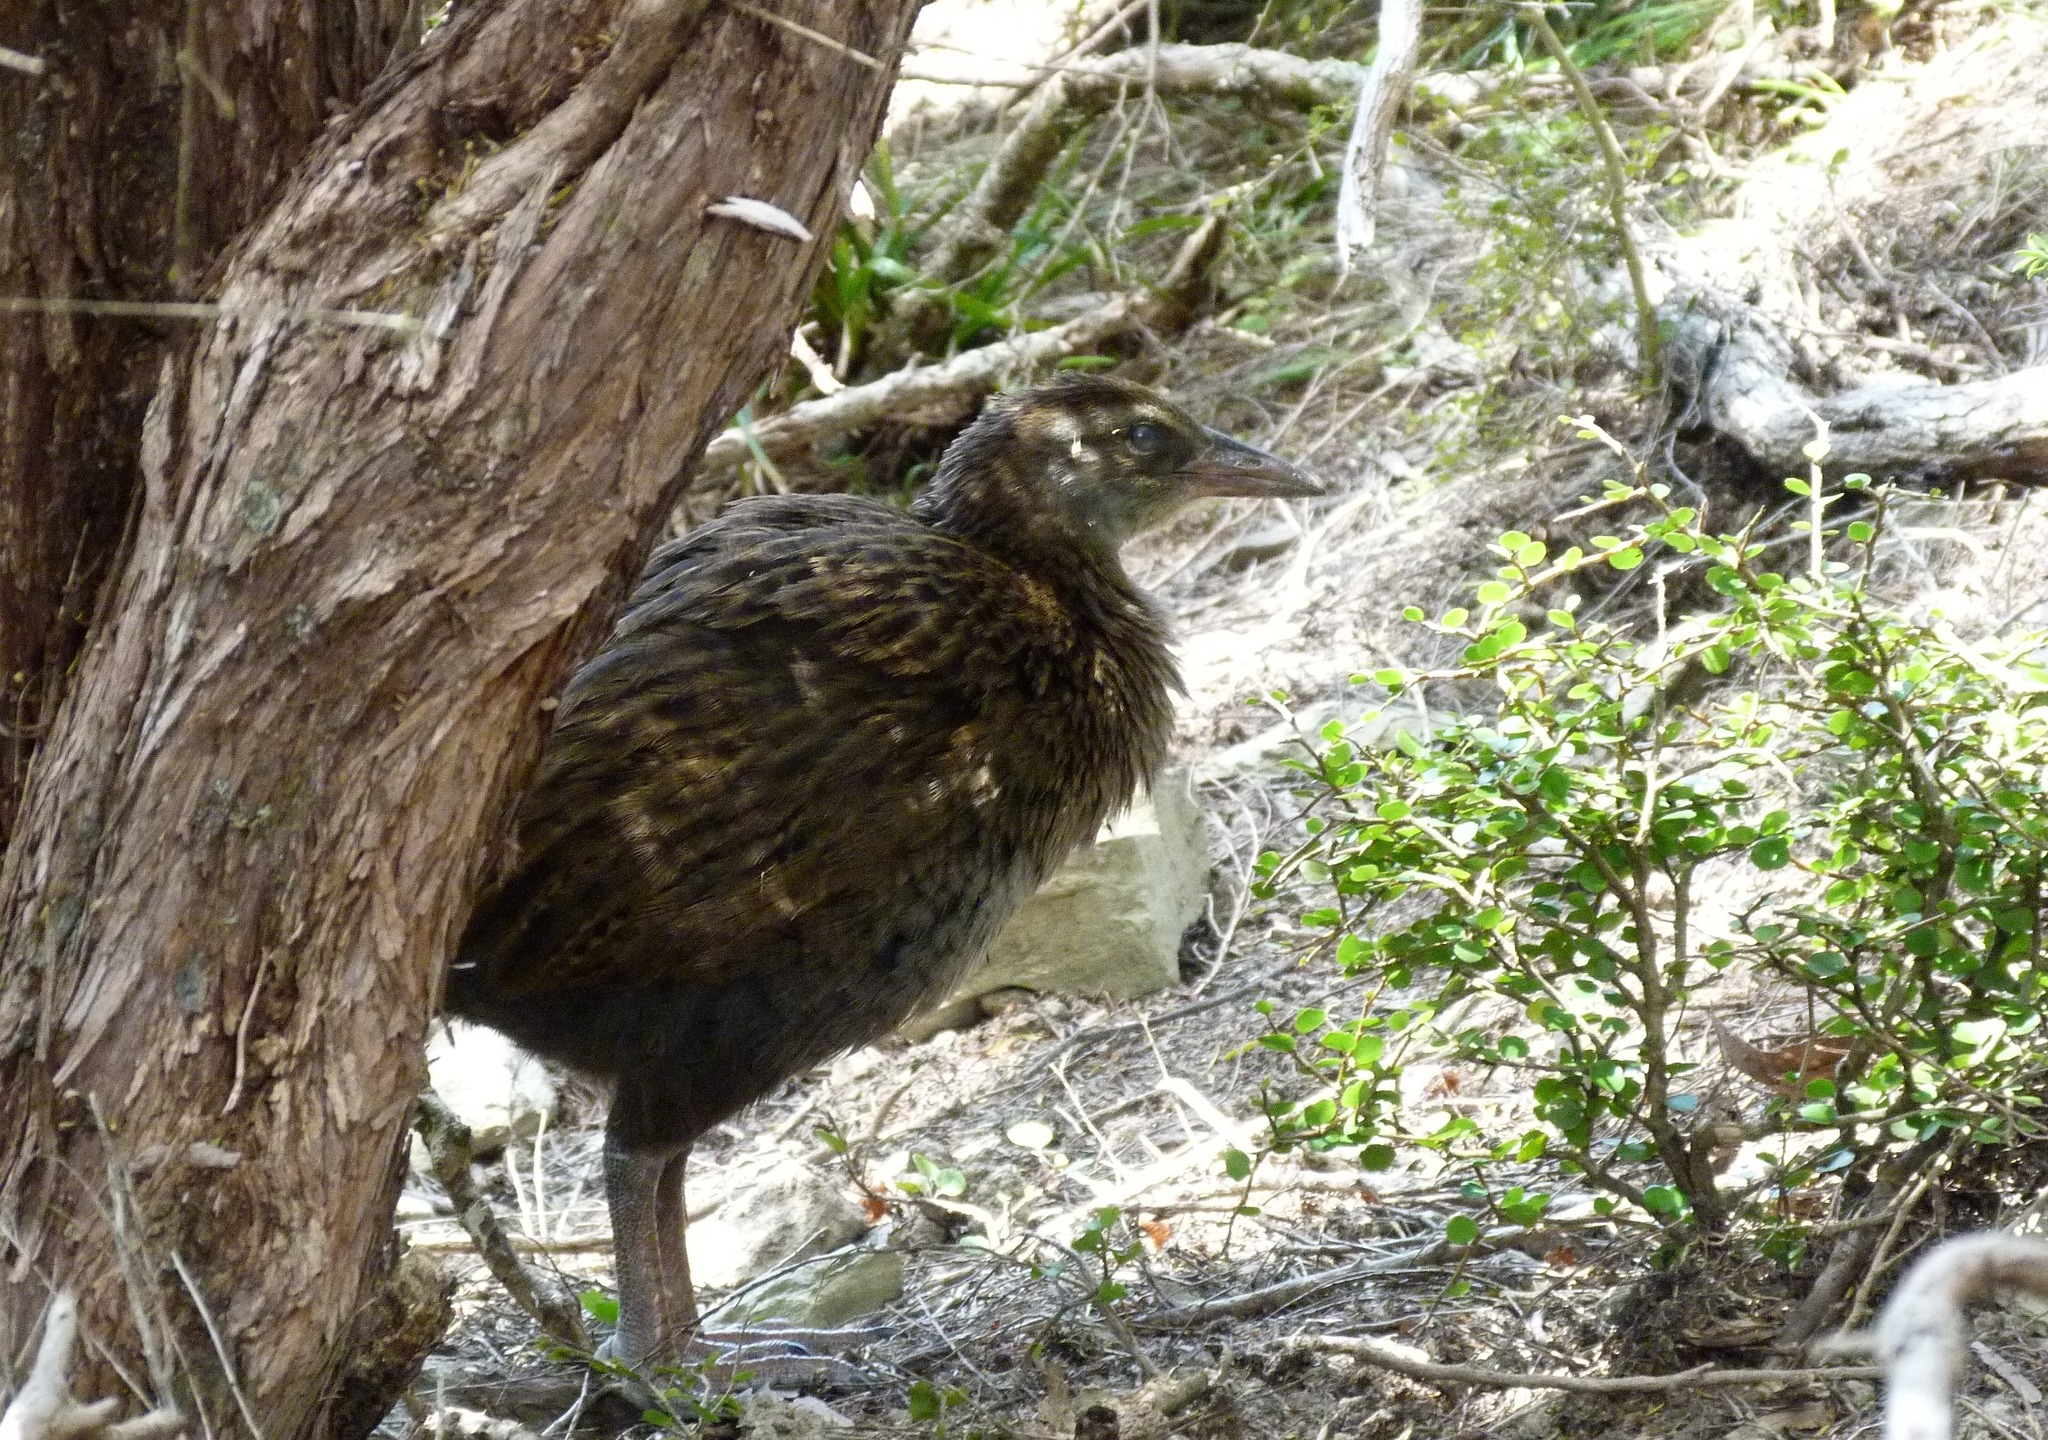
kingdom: Animalia
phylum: Chordata
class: Aves
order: Gruiformes
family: Rallidae
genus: Gallirallus
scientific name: Gallirallus australis
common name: Weka
